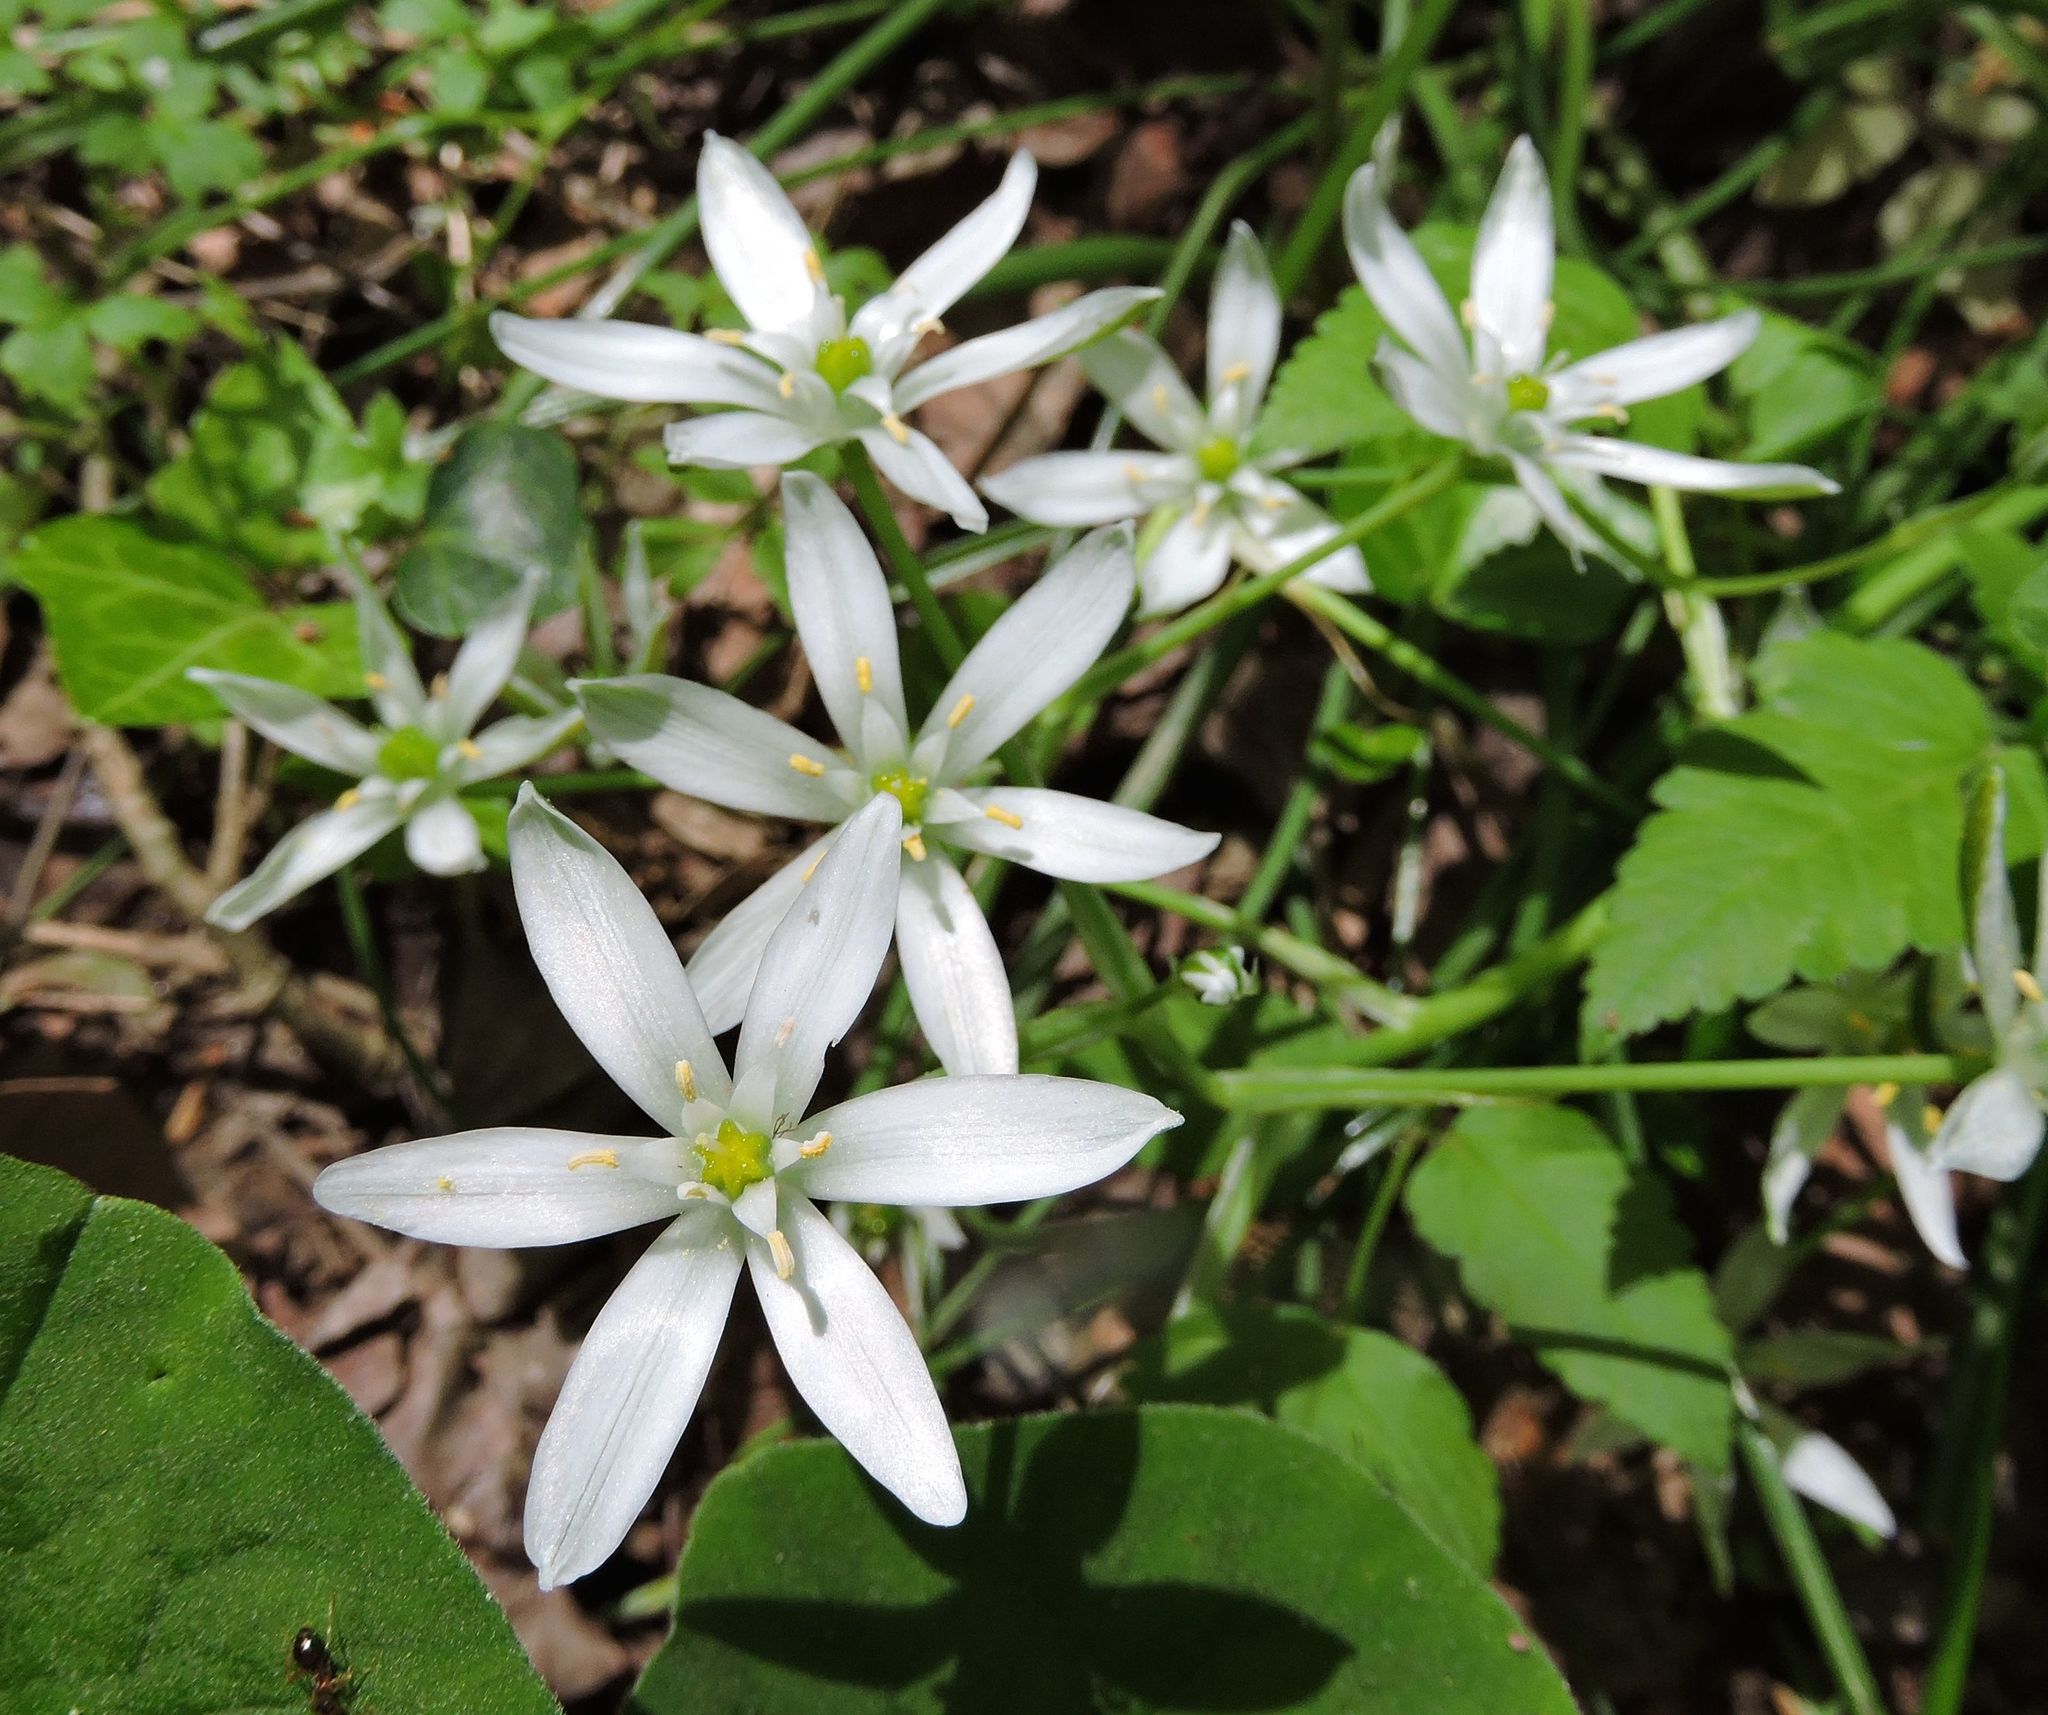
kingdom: Plantae
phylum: Tracheophyta
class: Liliopsida
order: Asparagales
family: Asparagaceae
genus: Ornithogalum
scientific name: Ornithogalum umbellatum
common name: Garden star-of-bethlehem
